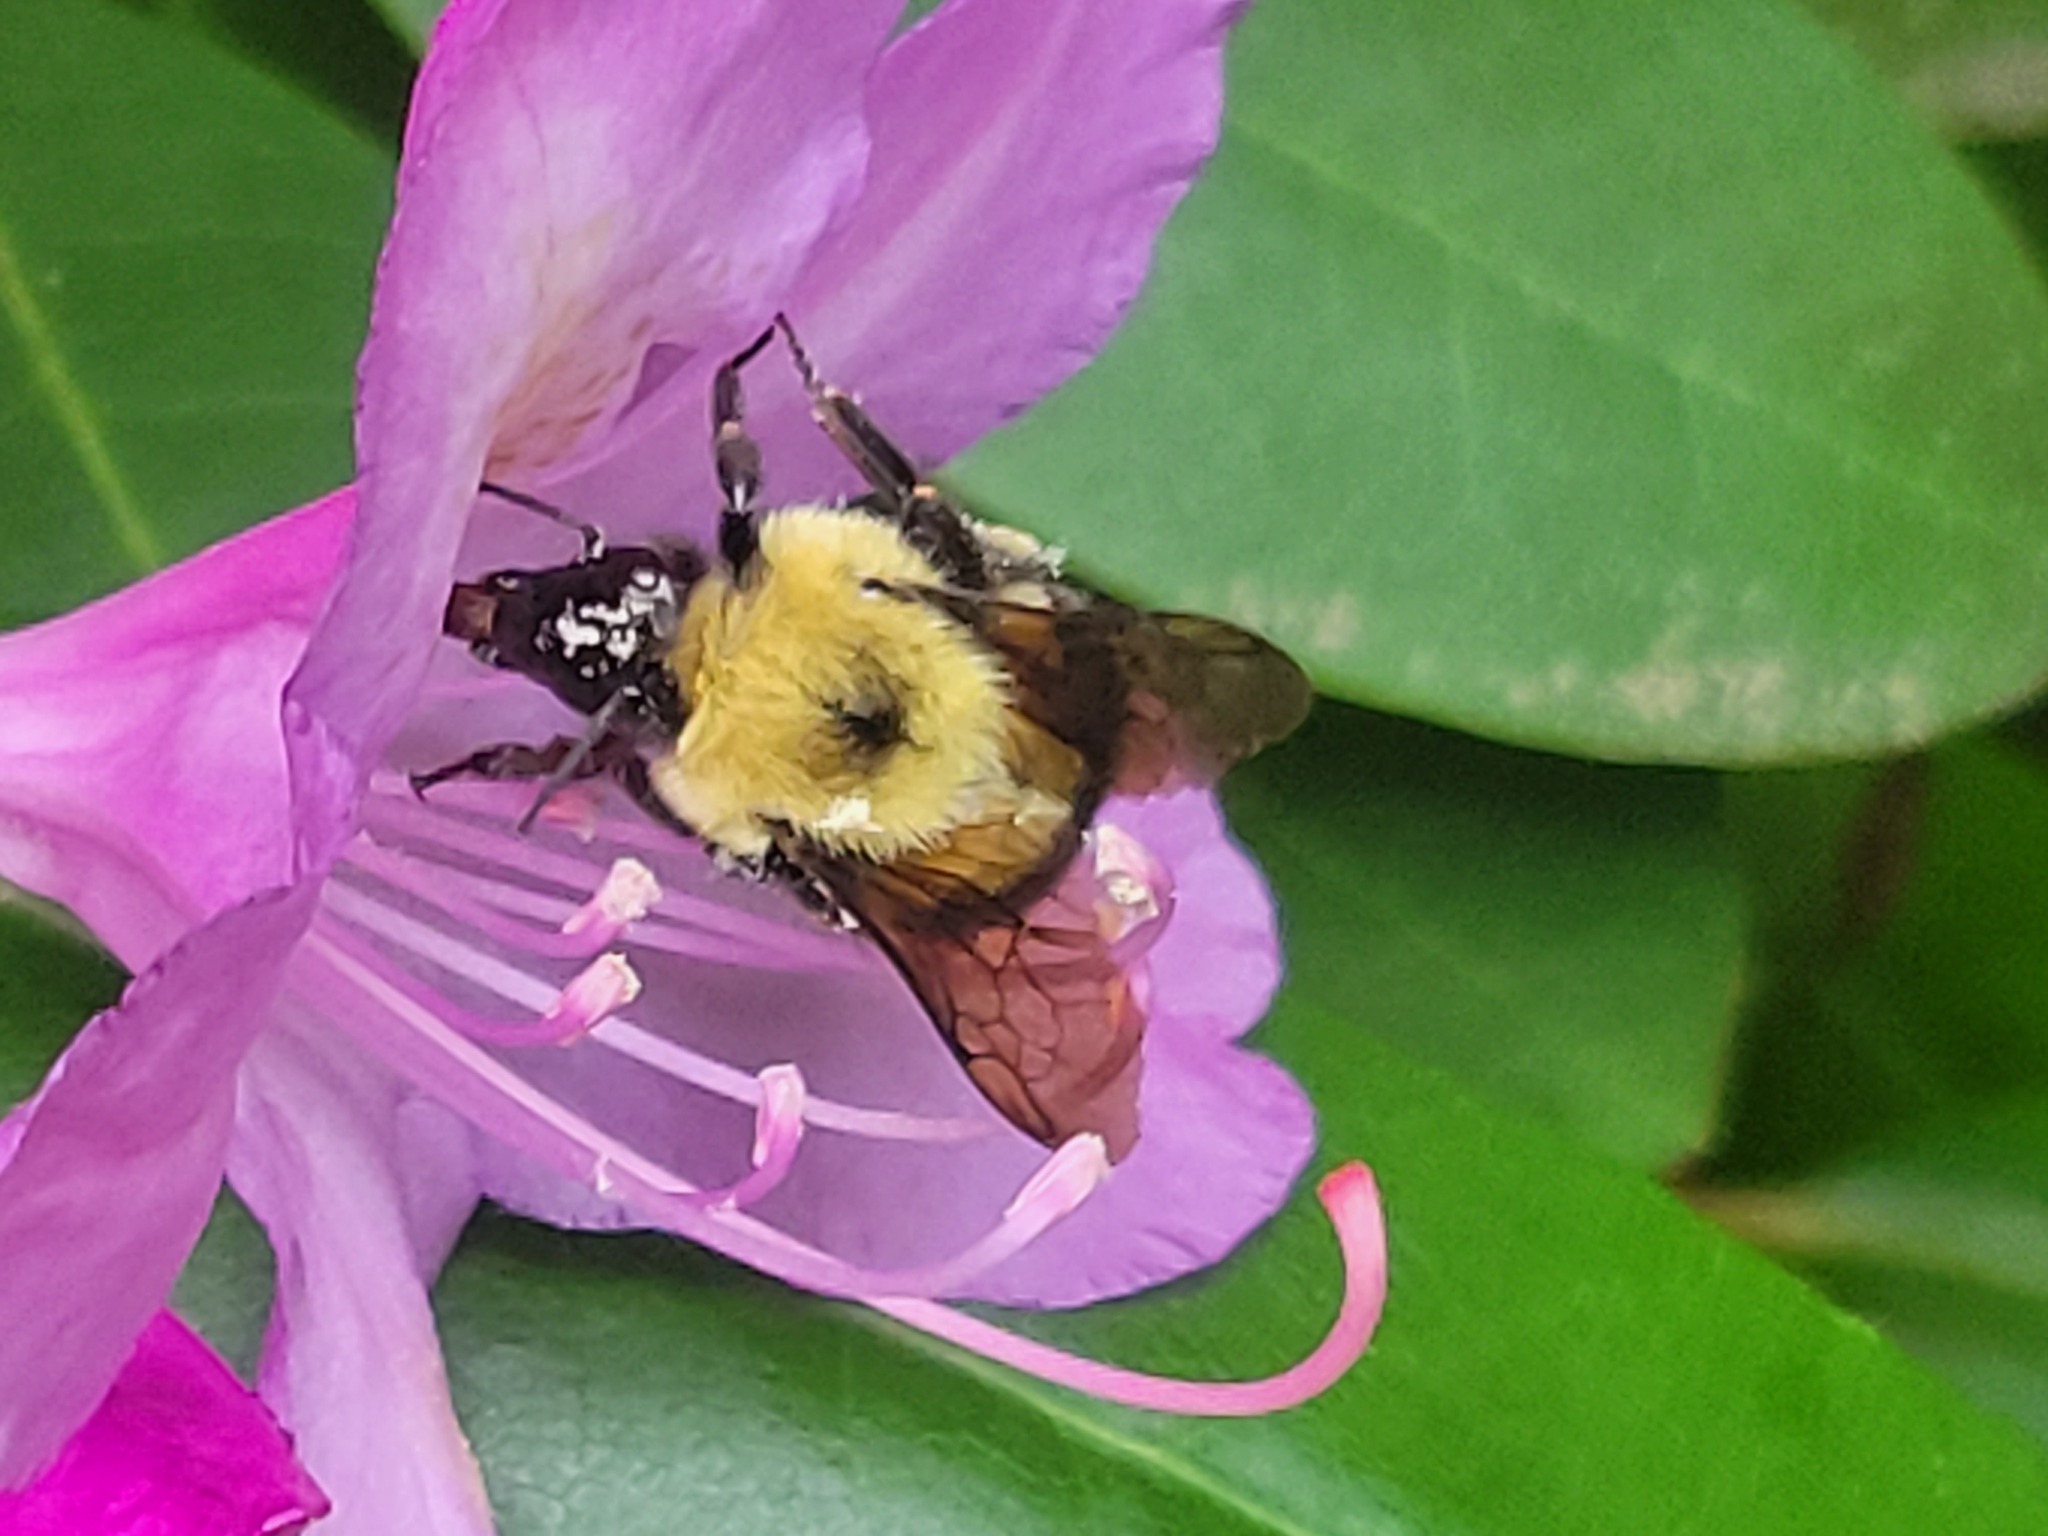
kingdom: Animalia
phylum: Arthropoda
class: Insecta
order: Hymenoptera
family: Apidae
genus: Bombus
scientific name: Bombus bimaculatus
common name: Two-spotted bumble bee
